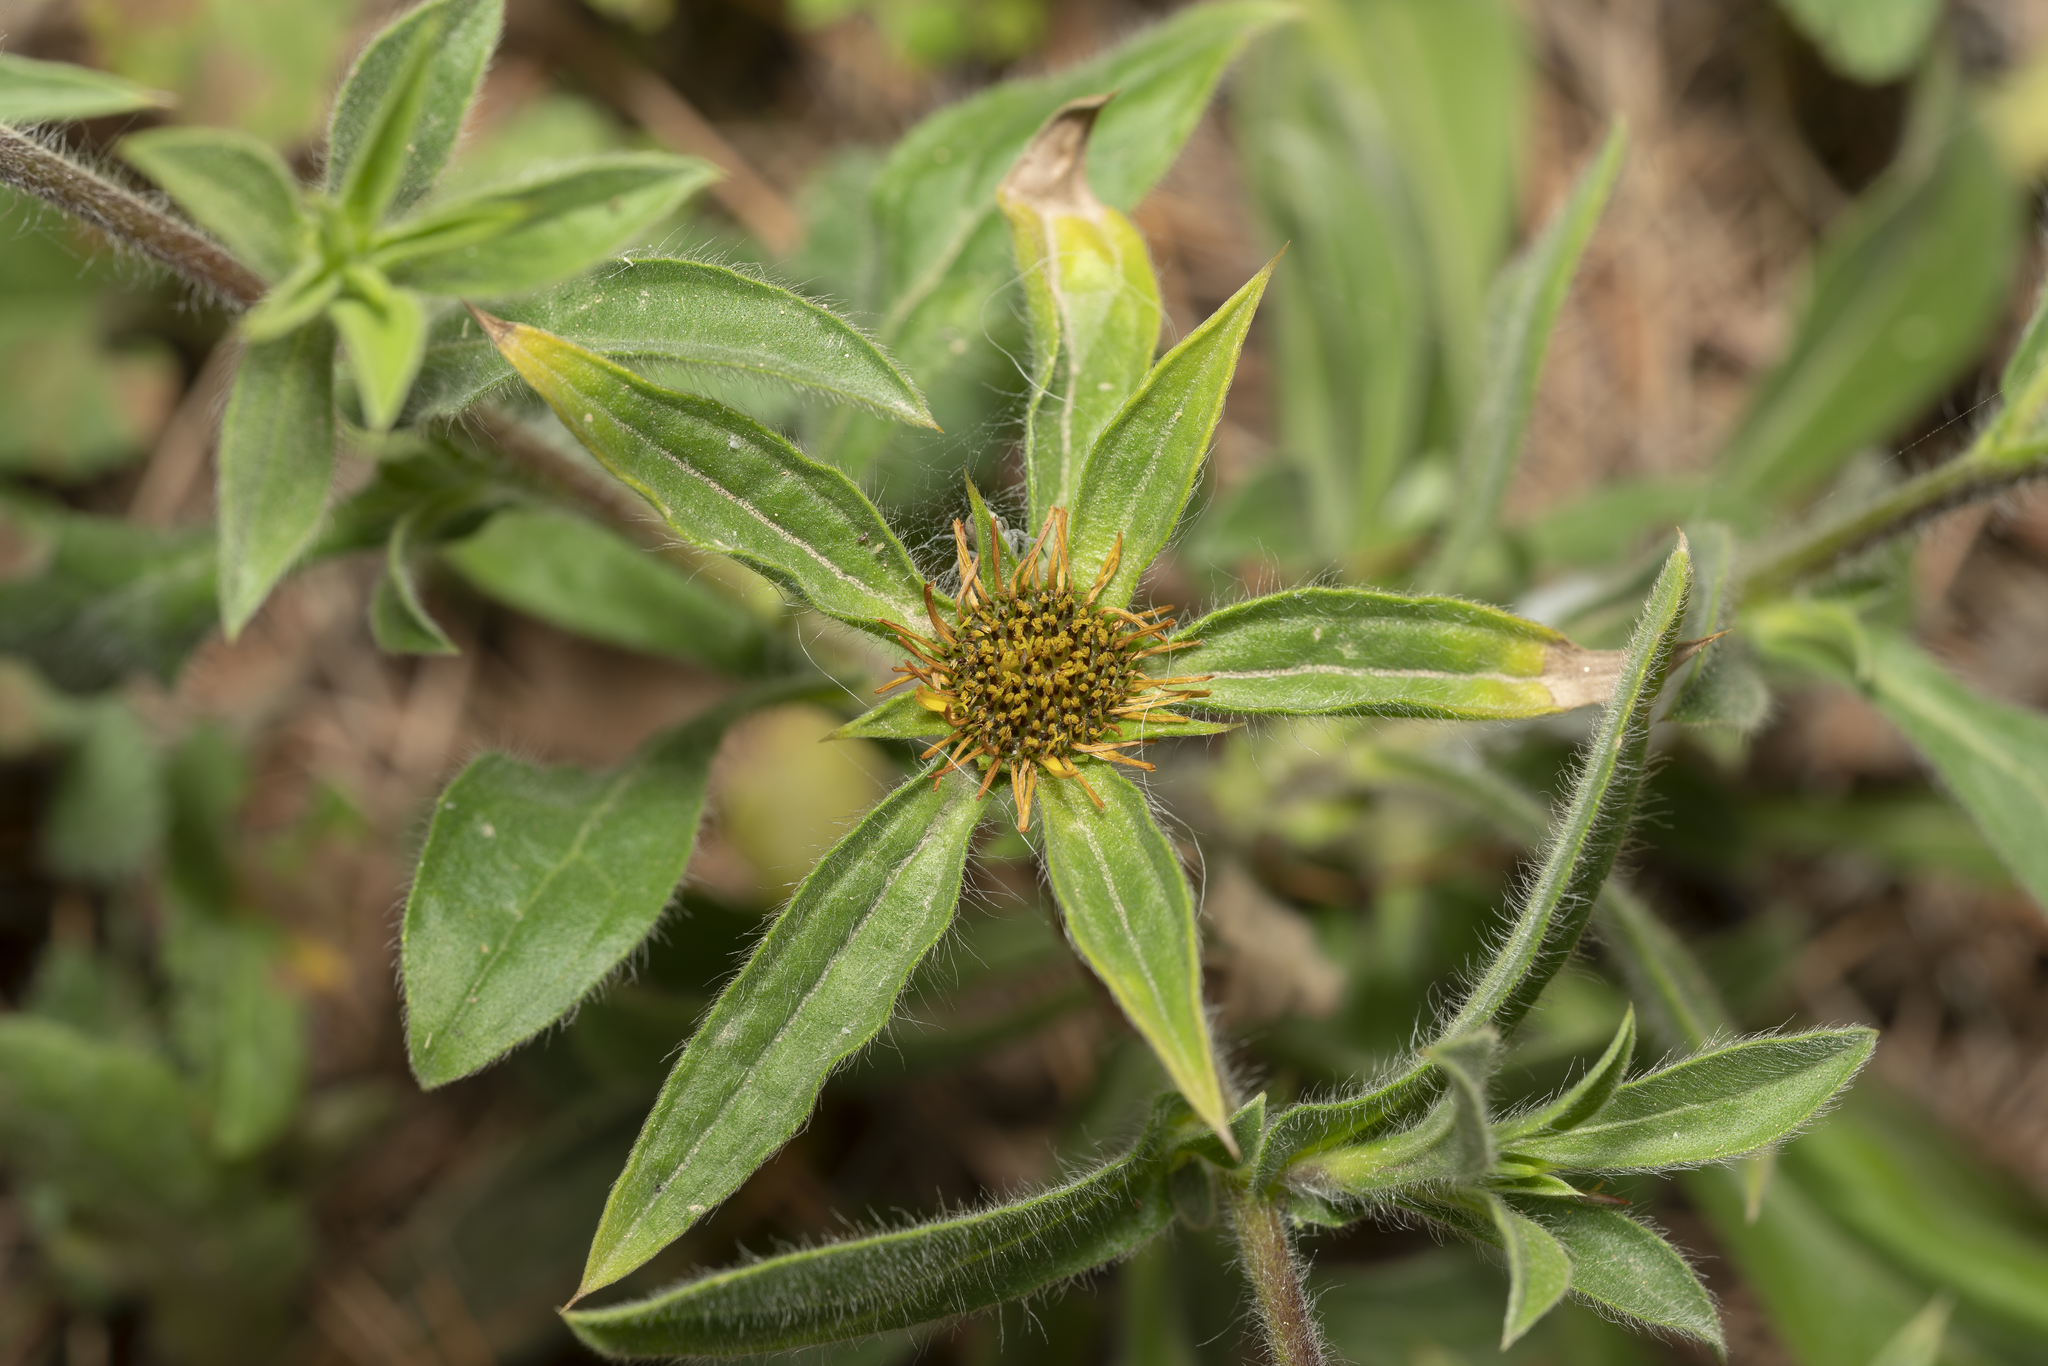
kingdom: Plantae
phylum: Tracheophyta
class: Magnoliopsida
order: Asterales
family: Asteraceae
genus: Pallenis
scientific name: Pallenis spinosa
